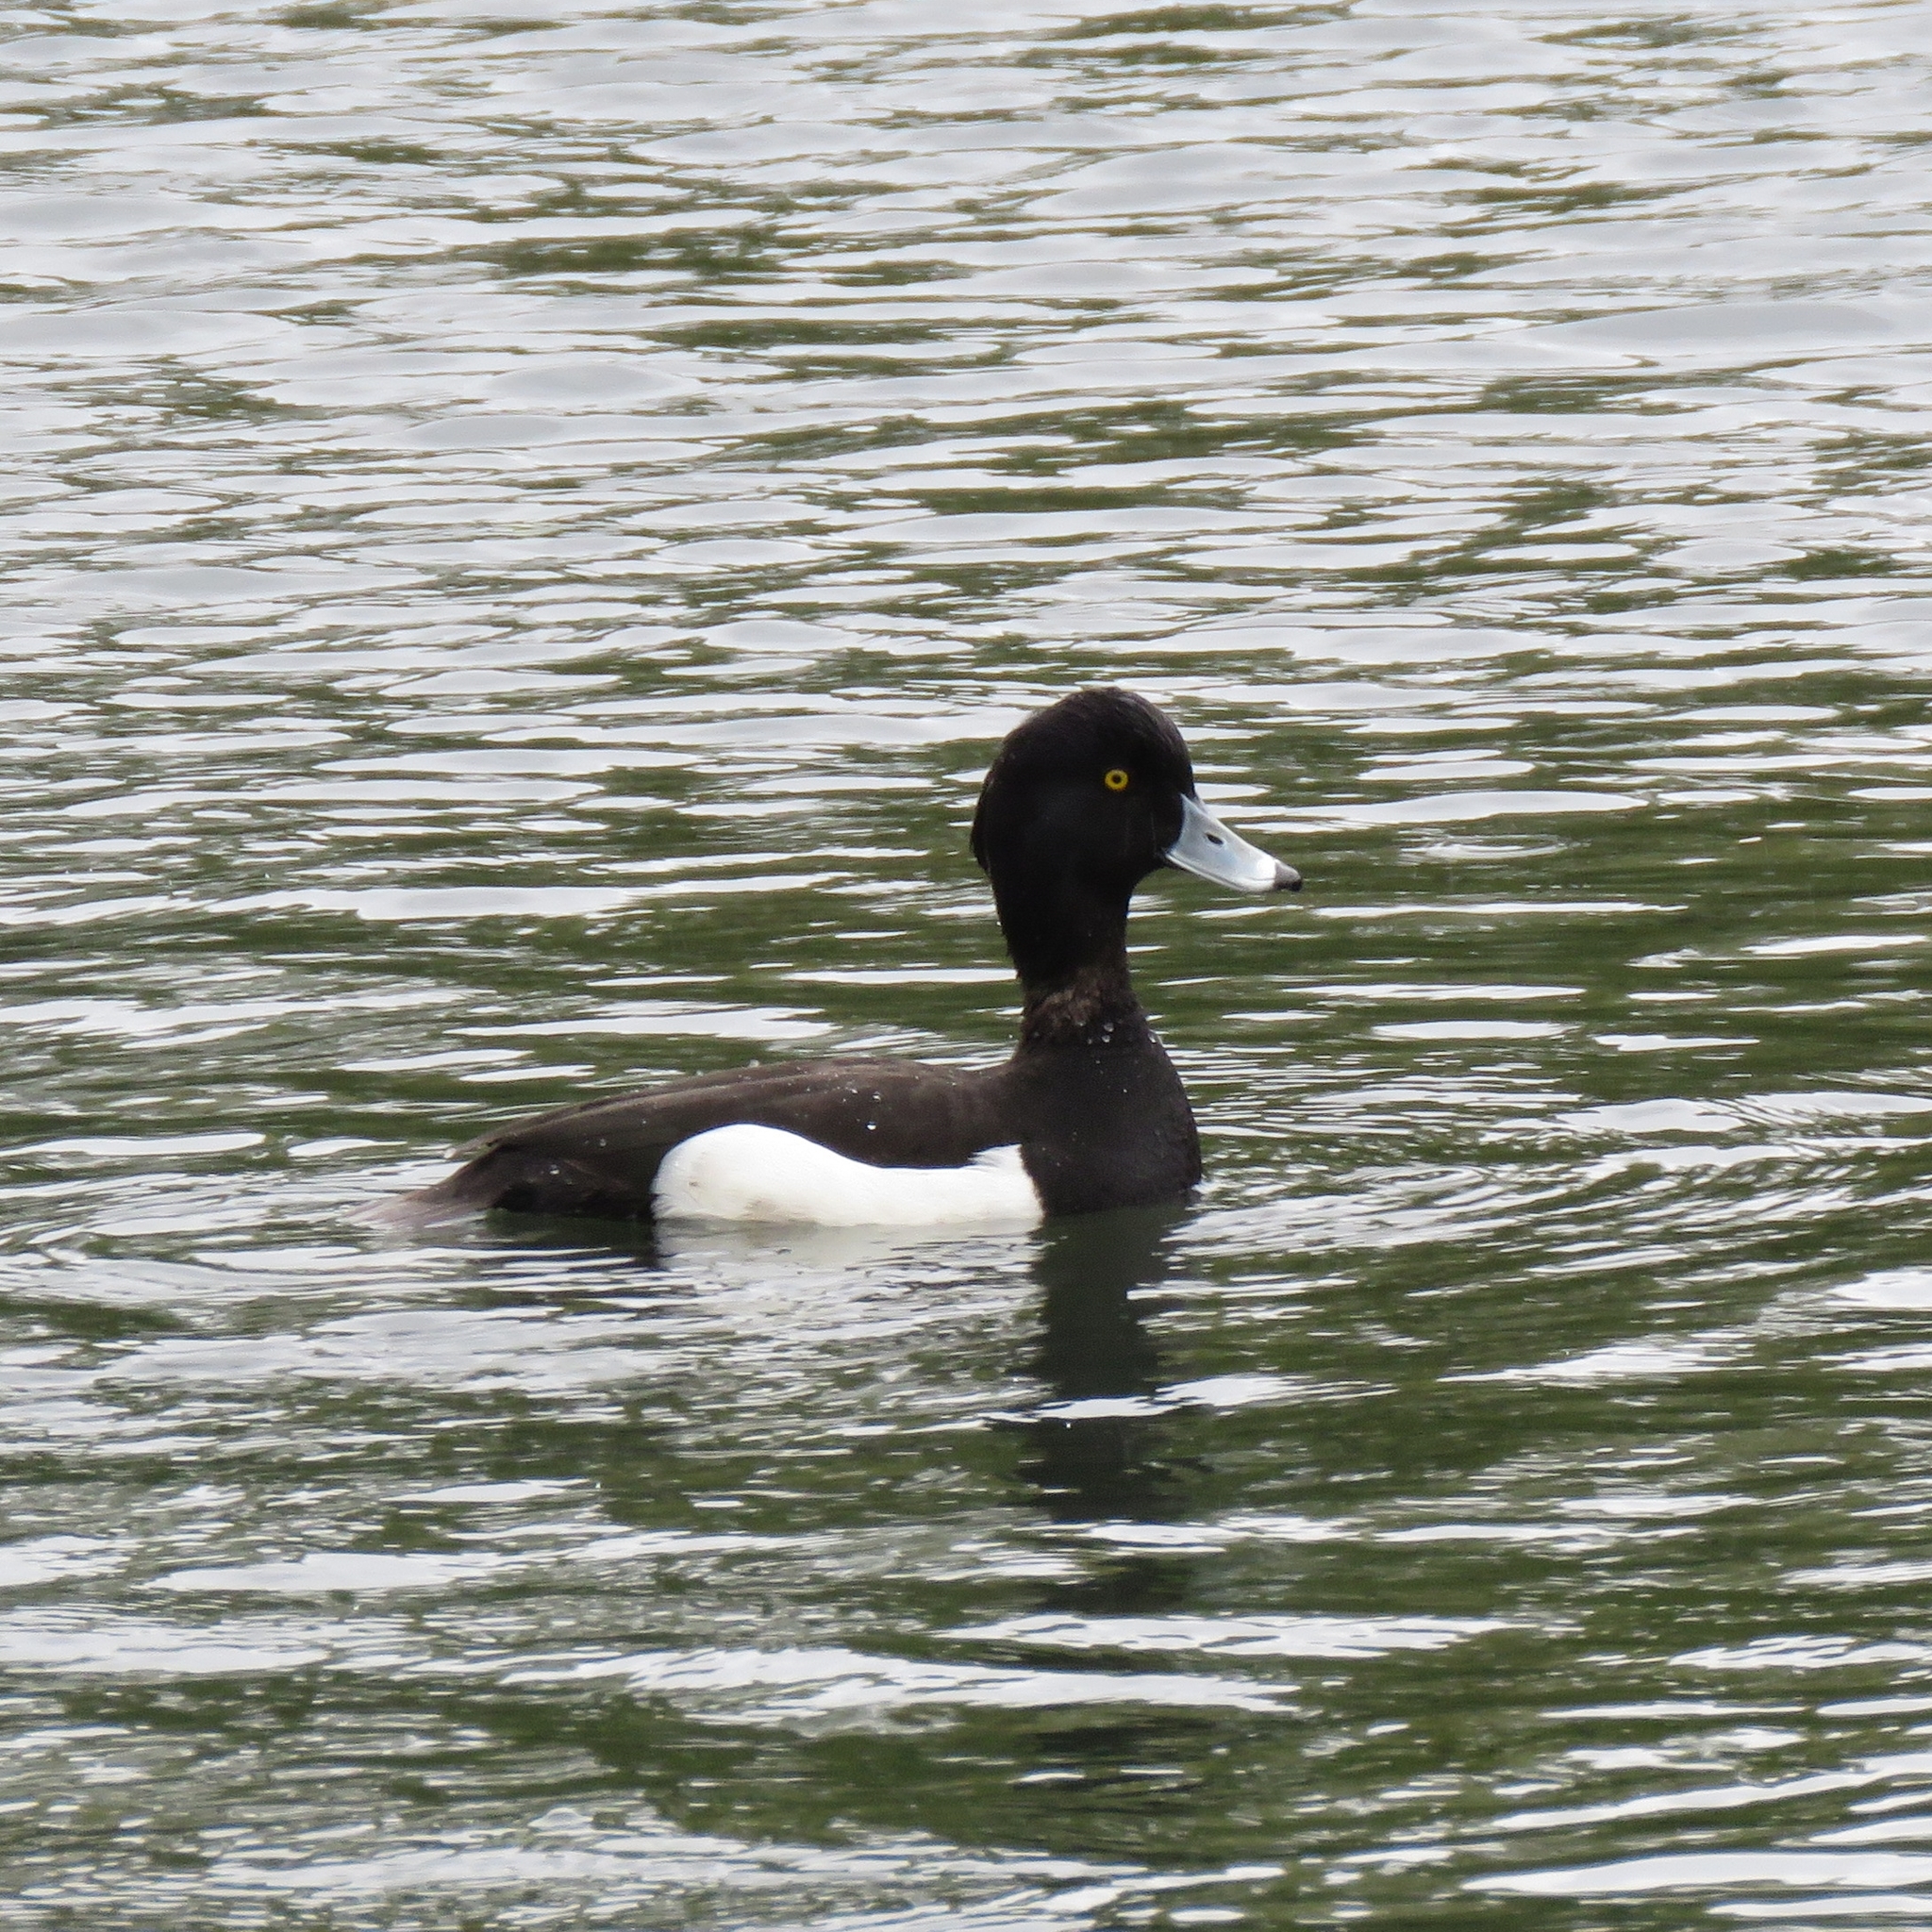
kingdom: Animalia
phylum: Chordata
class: Aves
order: Anseriformes
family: Anatidae
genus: Aythya
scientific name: Aythya fuligula
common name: Tufted duck
